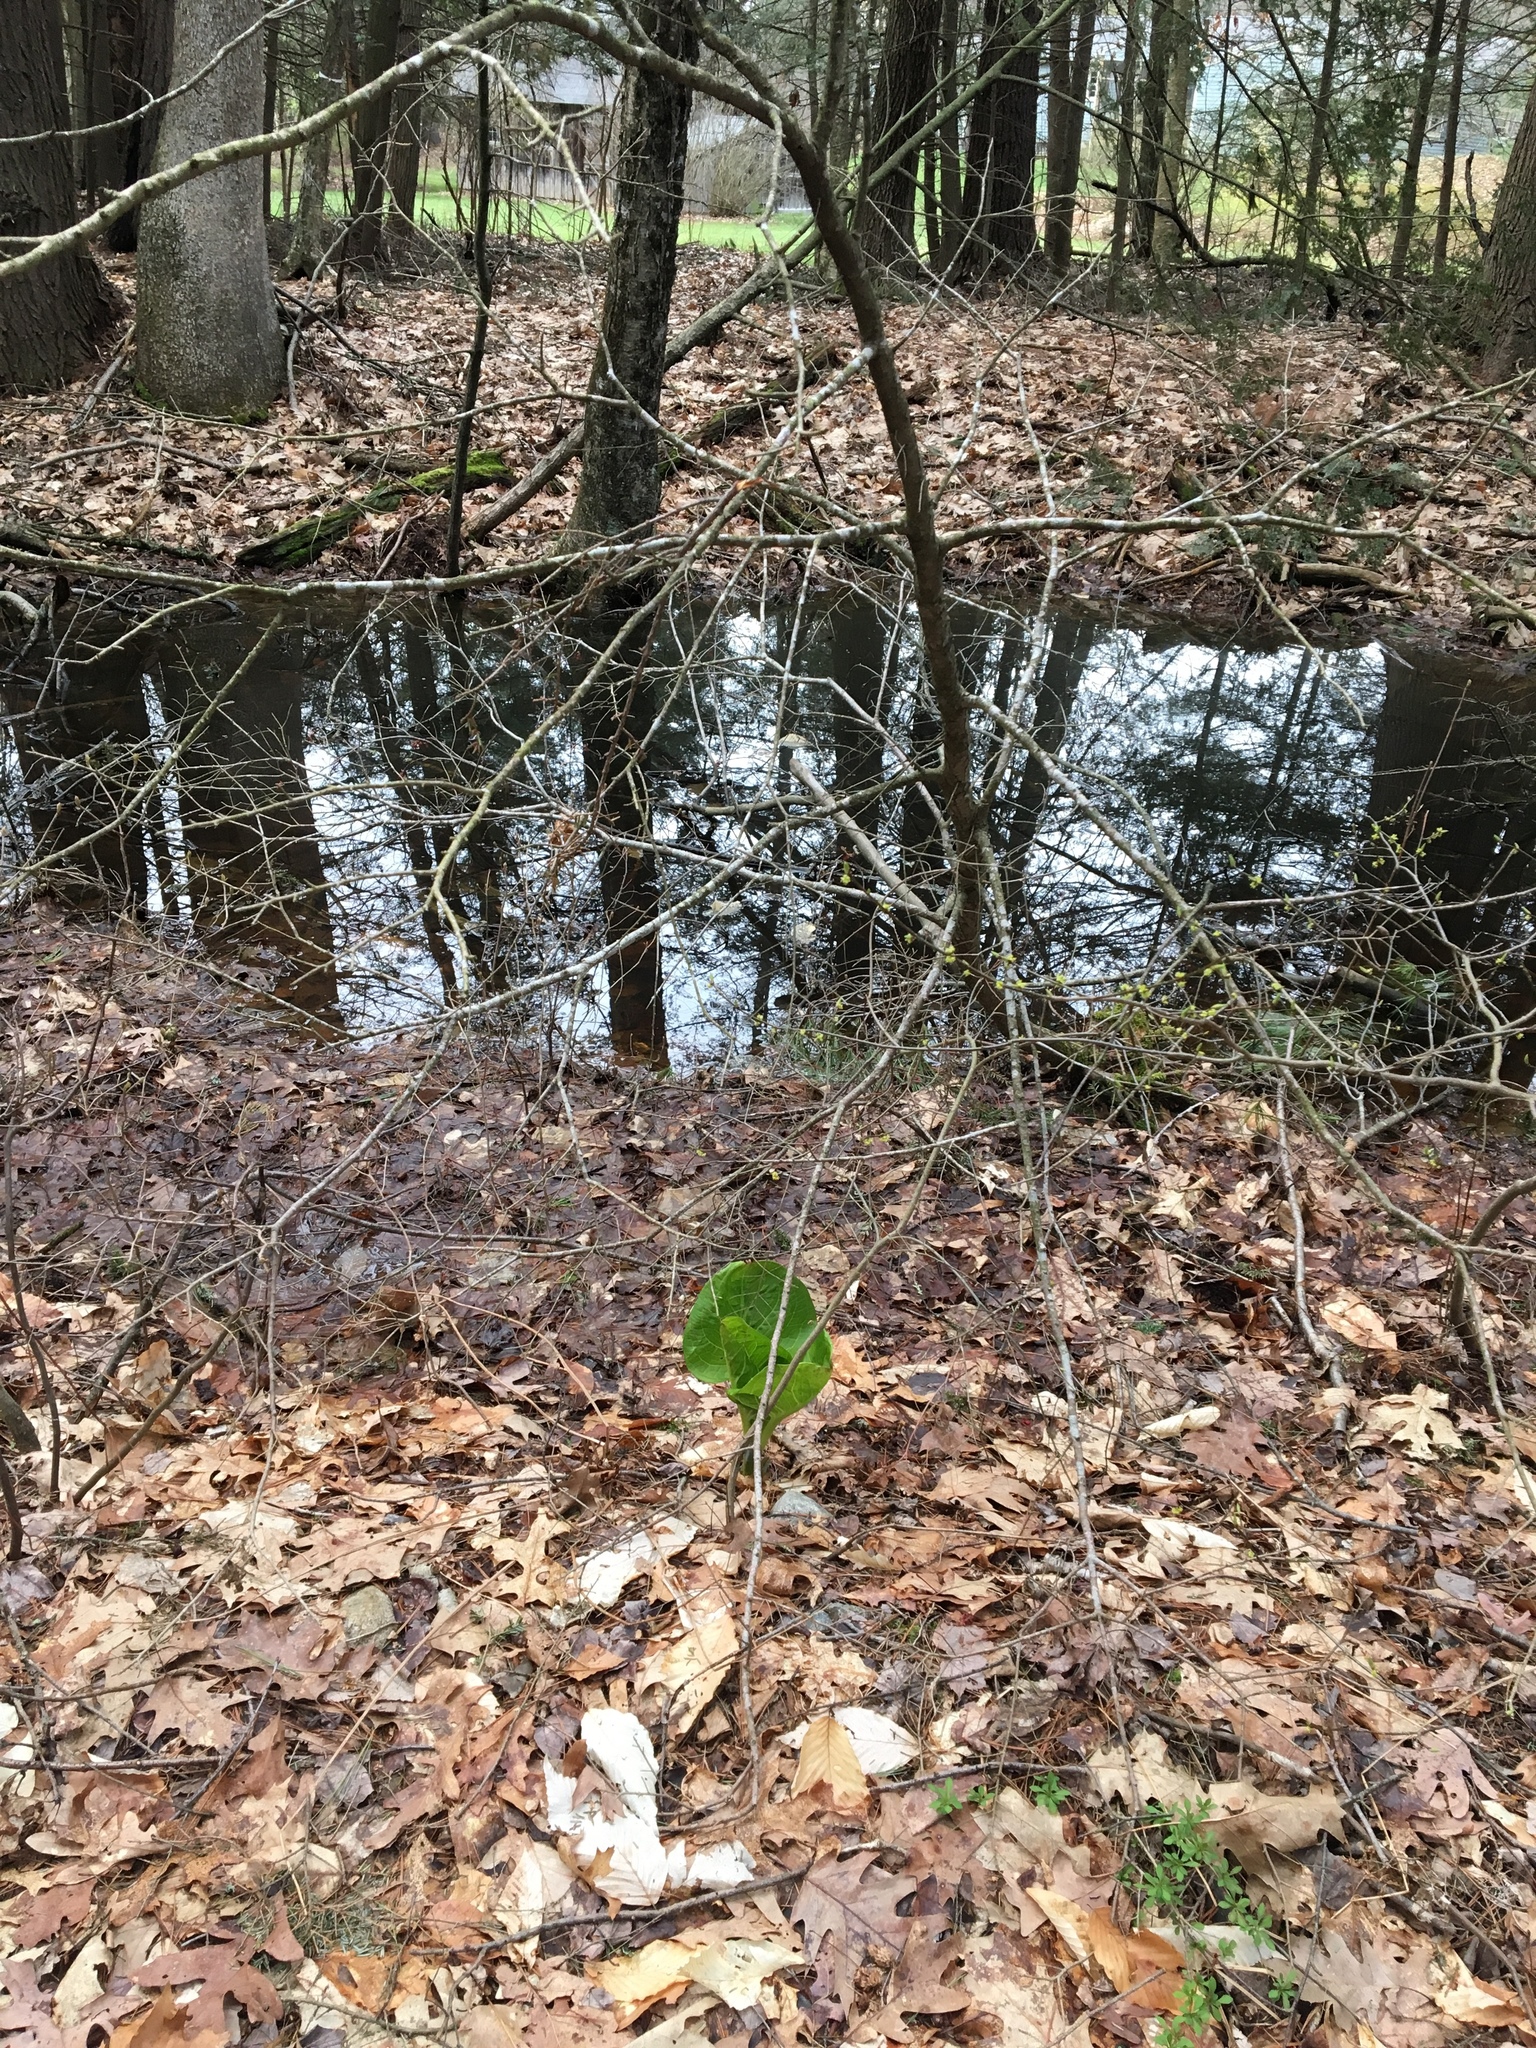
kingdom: Plantae
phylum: Tracheophyta
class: Liliopsida
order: Alismatales
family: Araceae
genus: Symplocarpus
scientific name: Symplocarpus foetidus
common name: Eastern skunk cabbage
